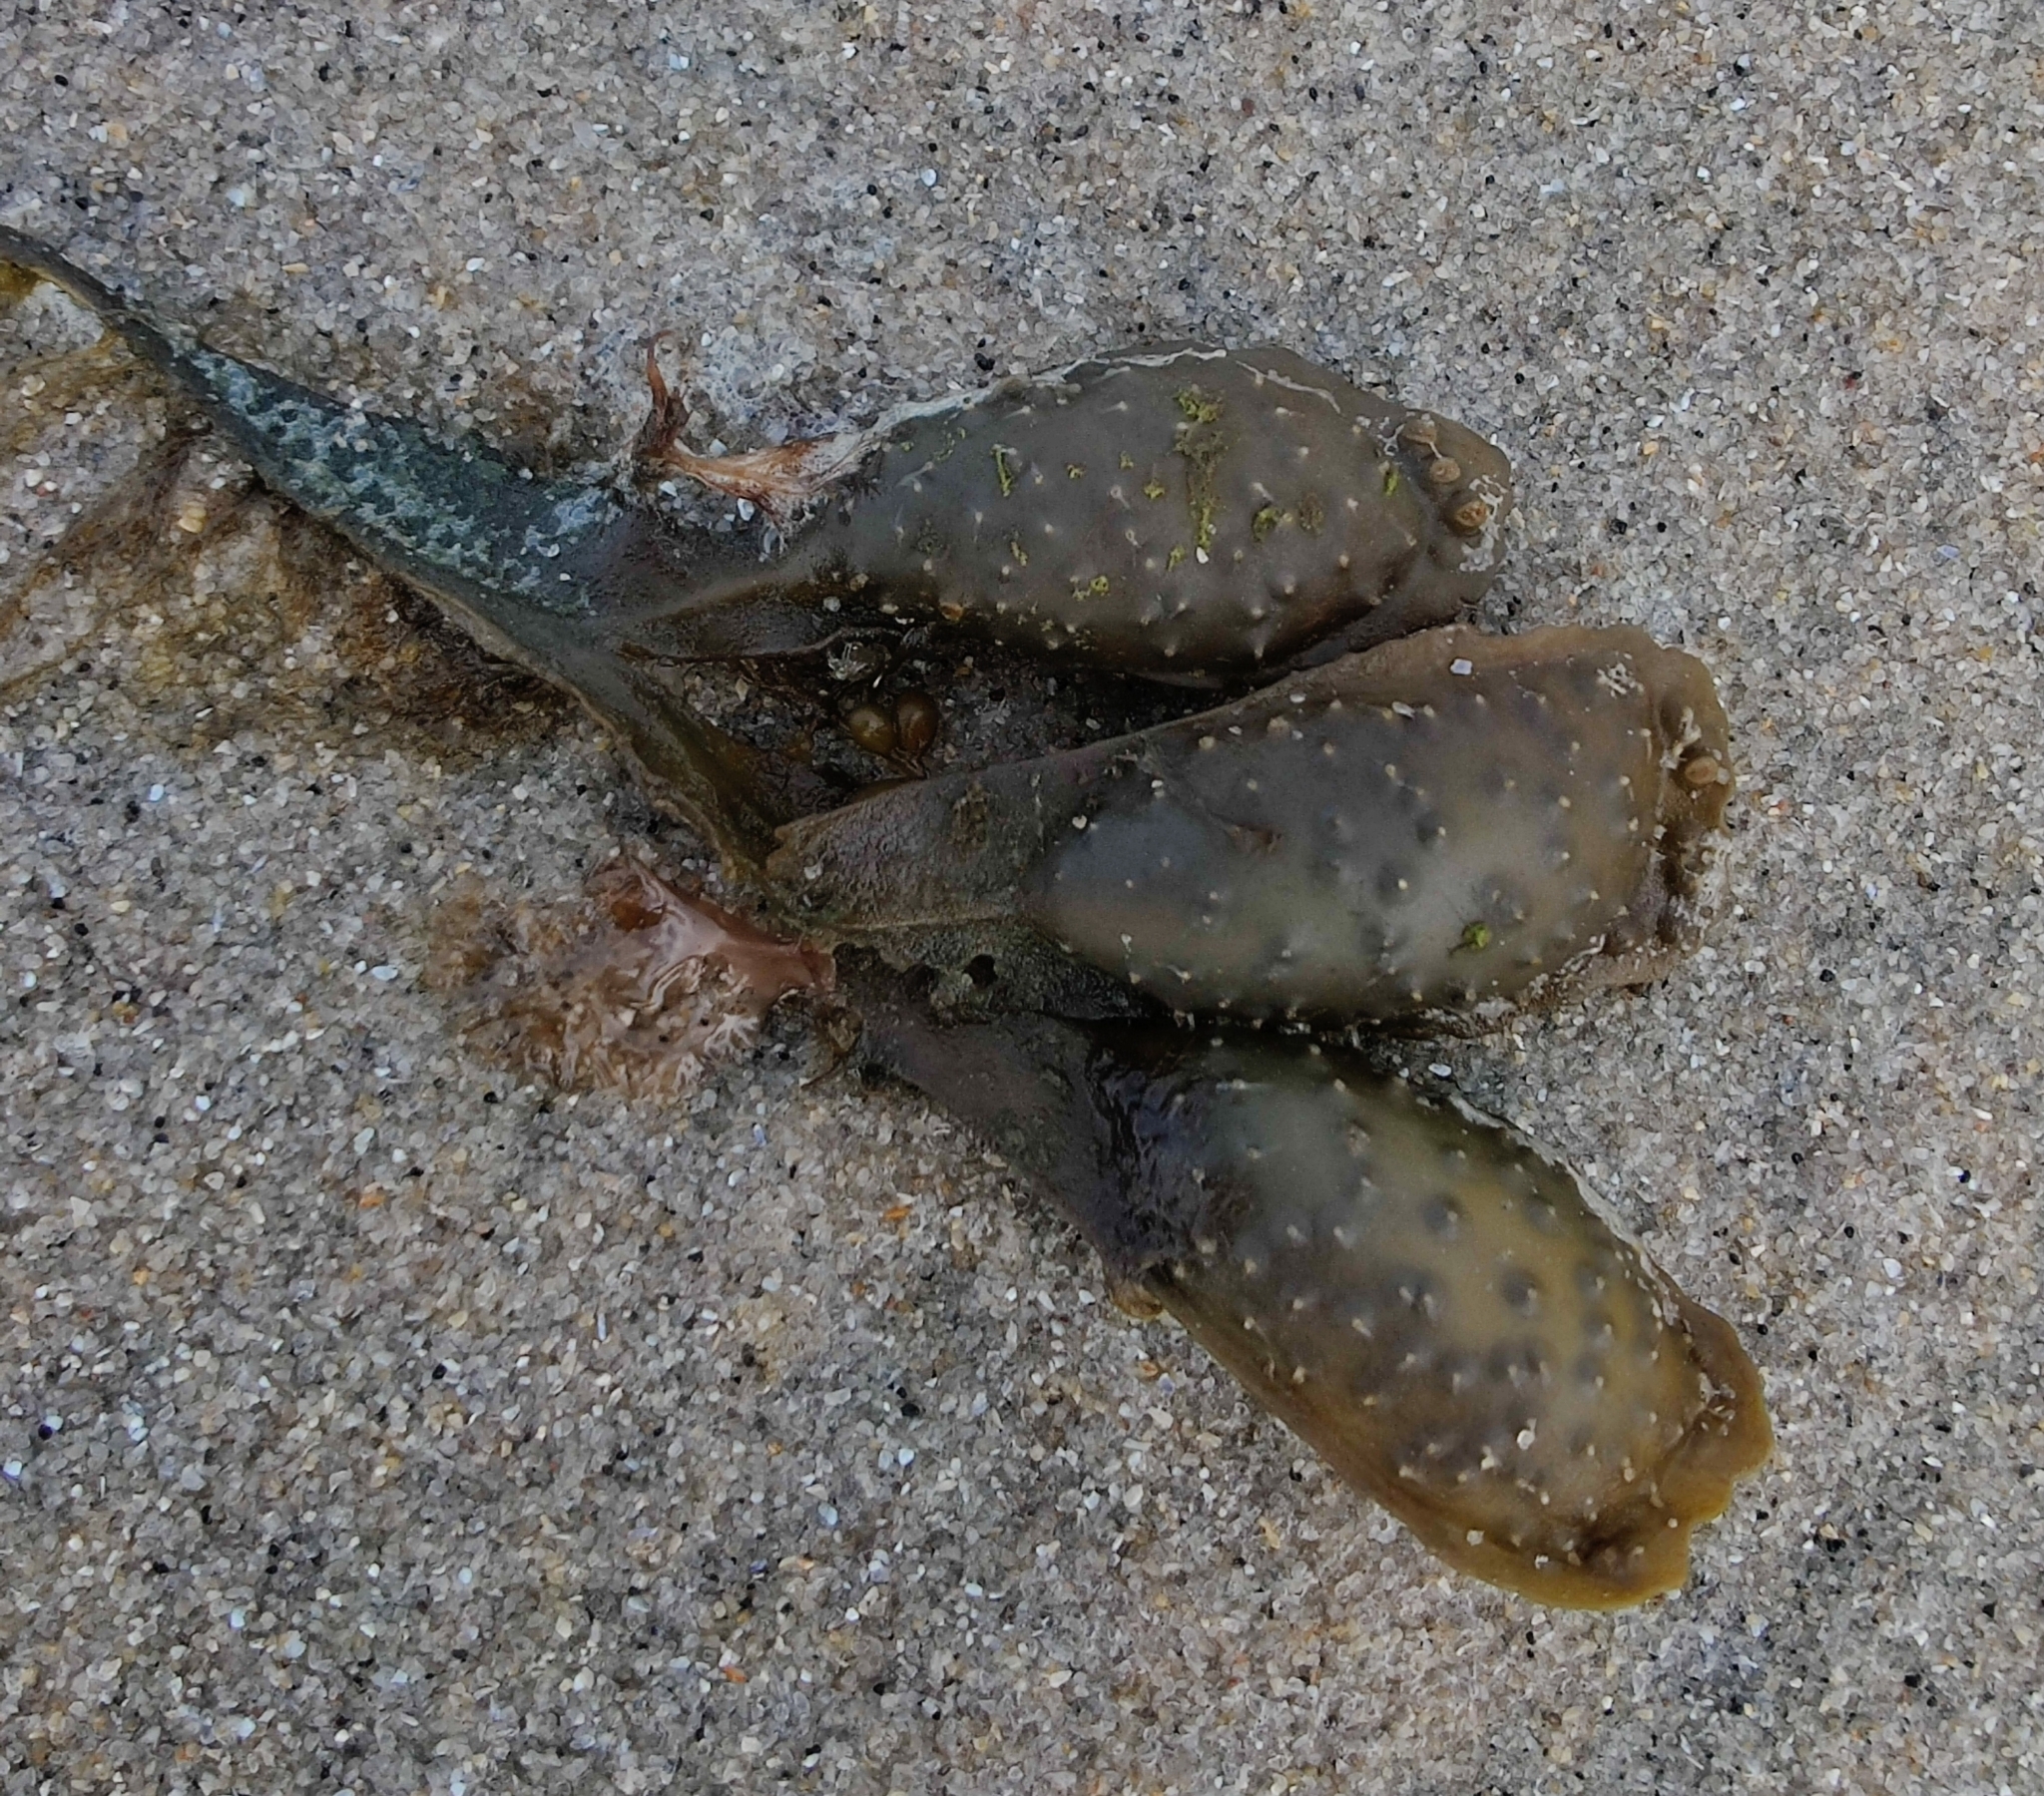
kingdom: Chromista
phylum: Ochrophyta
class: Phaeophyceae
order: Fucales
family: Fucaceae
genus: Fucus
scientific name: Fucus spiralis
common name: Spiral wrack
